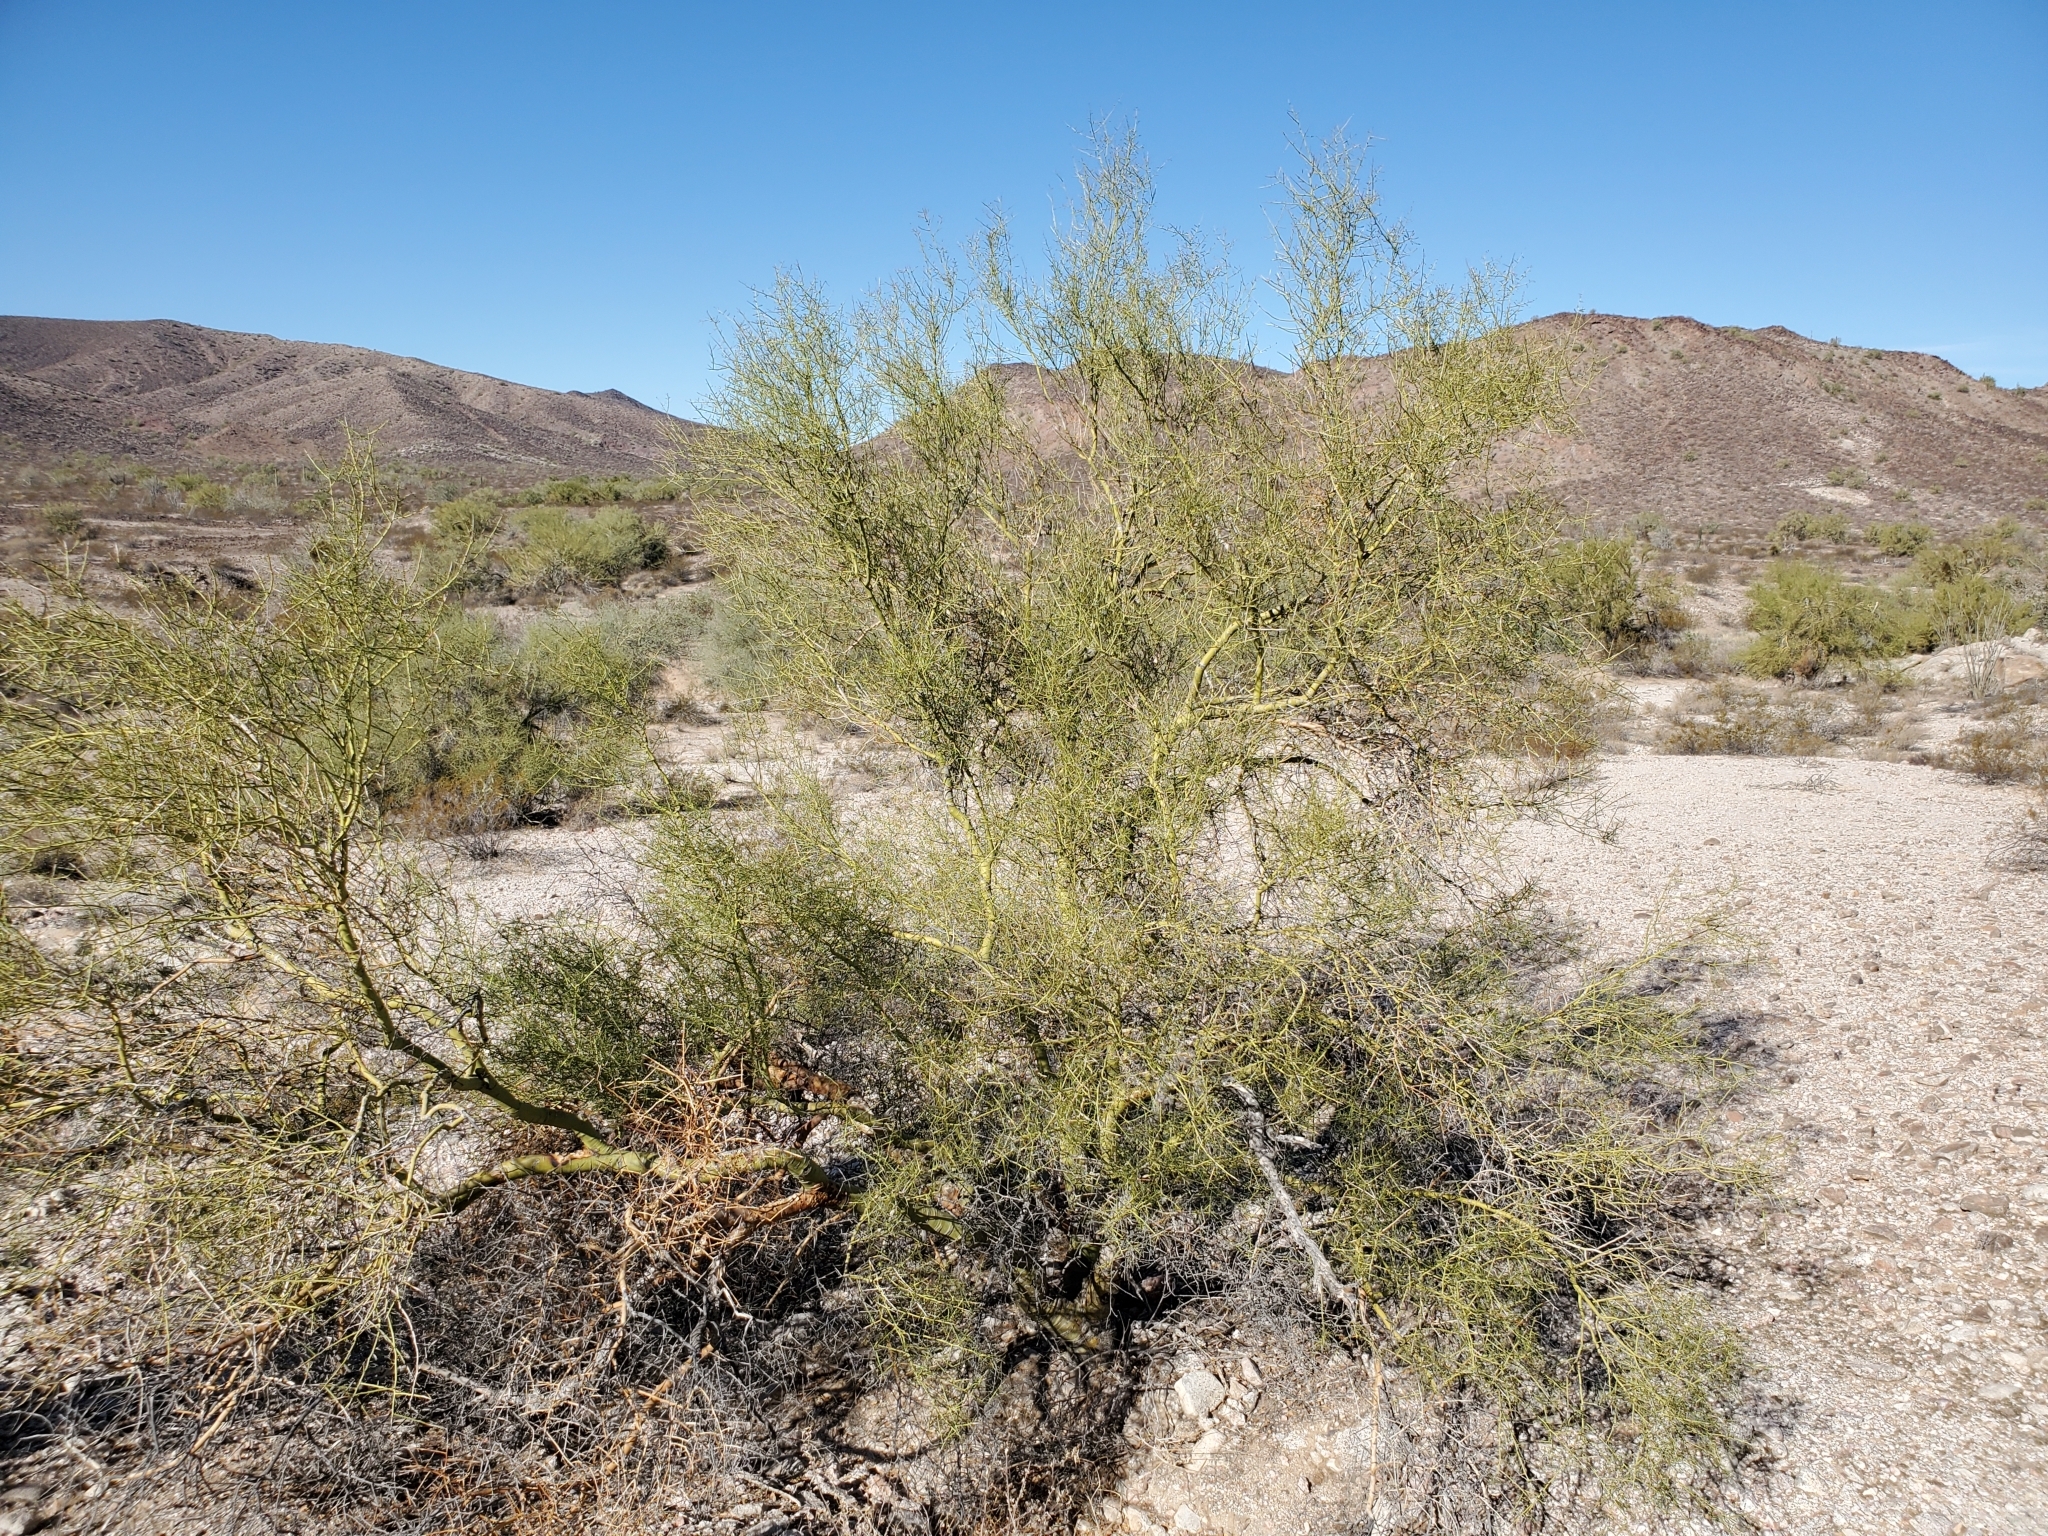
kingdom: Plantae
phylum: Tracheophyta
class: Magnoliopsida
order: Fabales
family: Fabaceae
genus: Parkinsonia
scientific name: Parkinsonia microphylla
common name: Yellow paloverde
